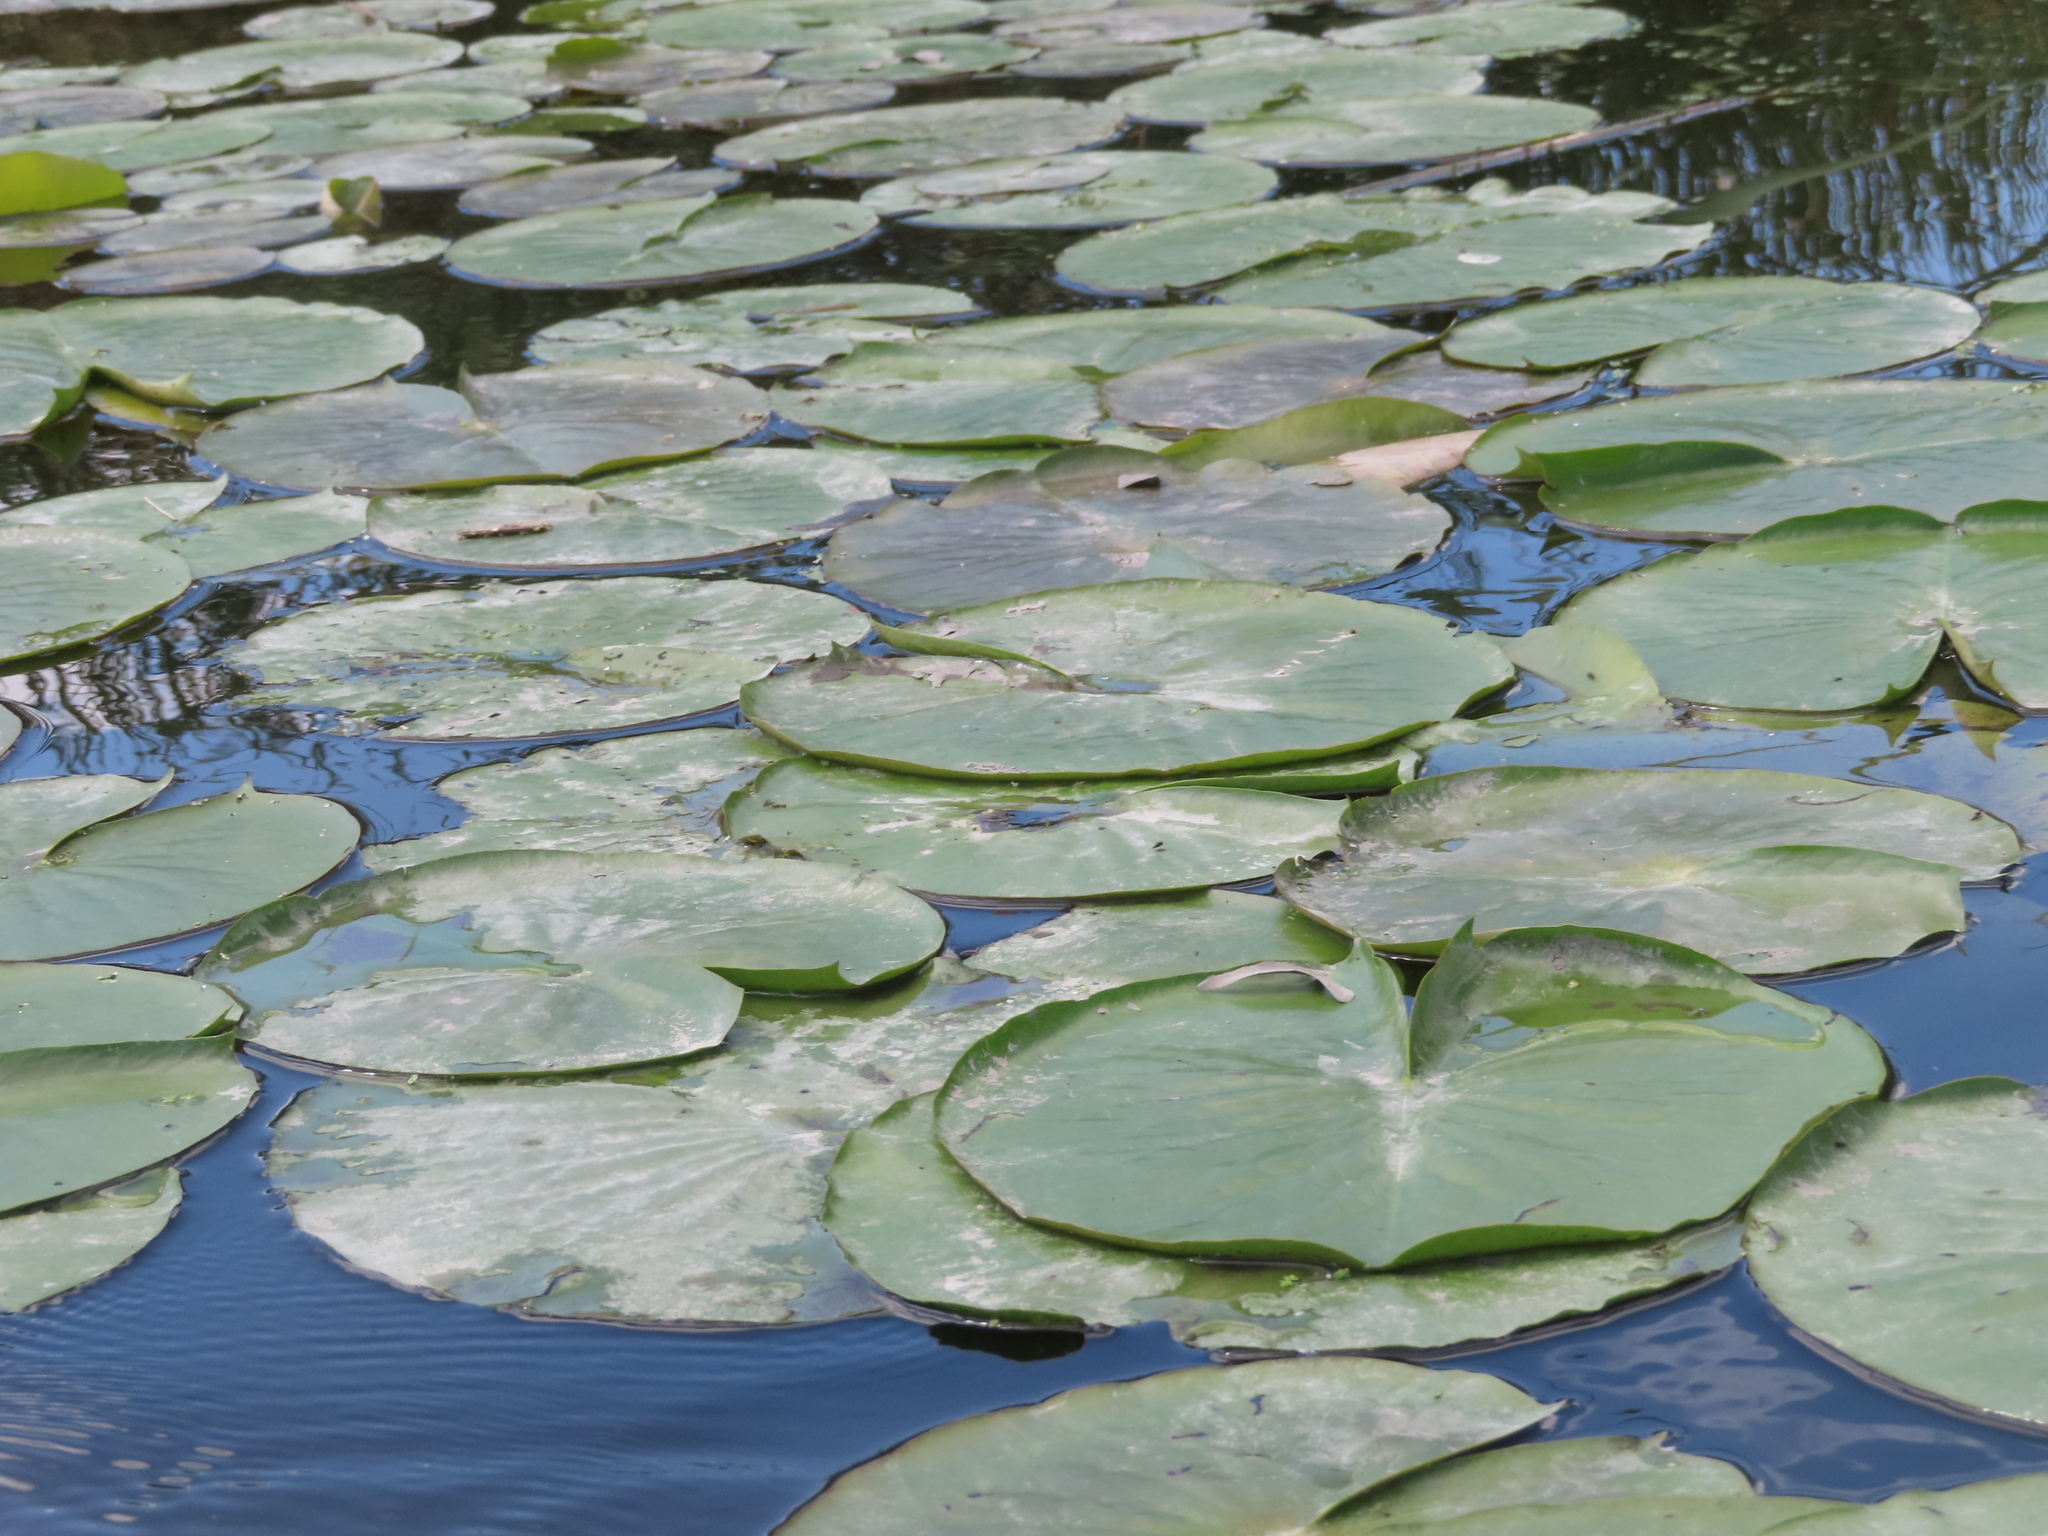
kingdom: Plantae
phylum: Tracheophyta
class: Magnoliopsida
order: Nymphaeales
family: Nymphaeaceae
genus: Nymphaea
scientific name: Nymphaea odorata
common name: Fragrant water-lily
